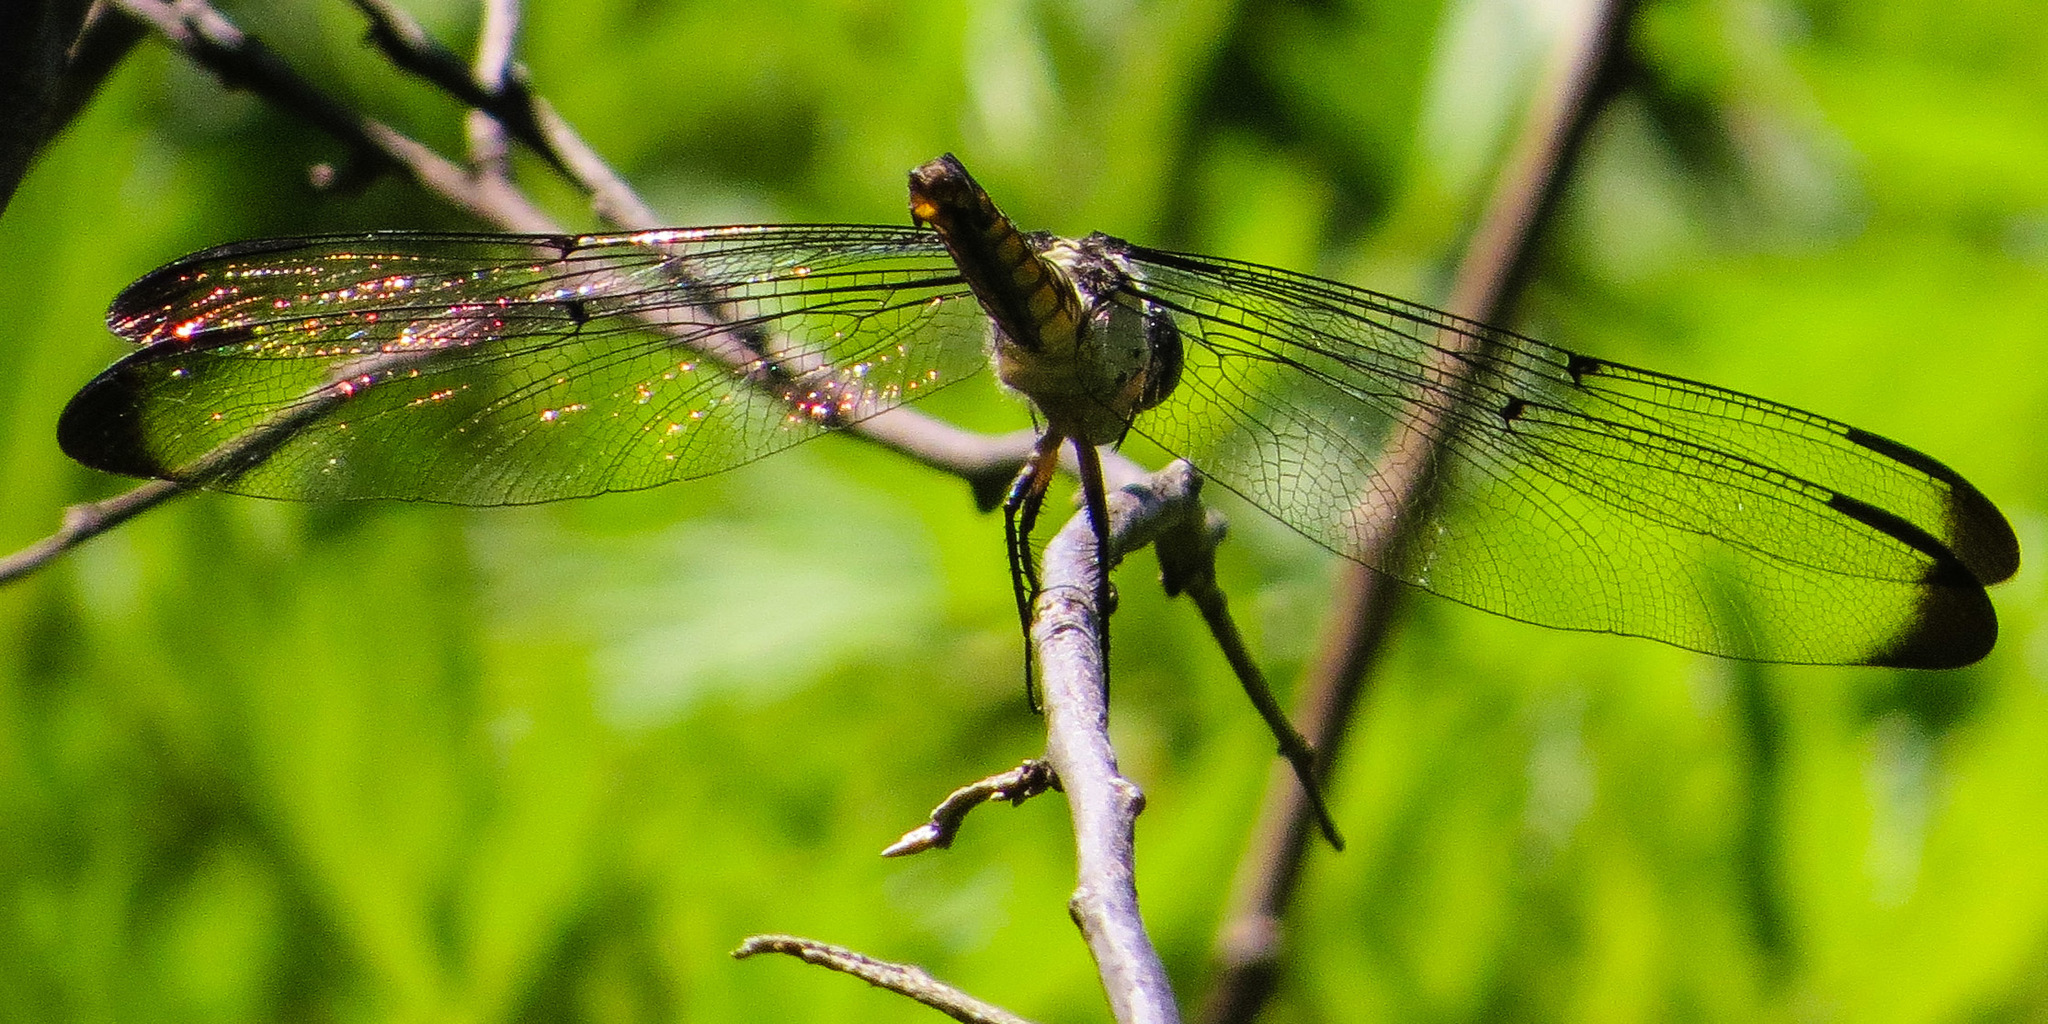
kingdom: Animalia
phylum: Arthropoda
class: Insecta
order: Odonata
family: Libellulidae
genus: Libellula
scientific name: Libellula vibrans
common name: Great blue skimmer
